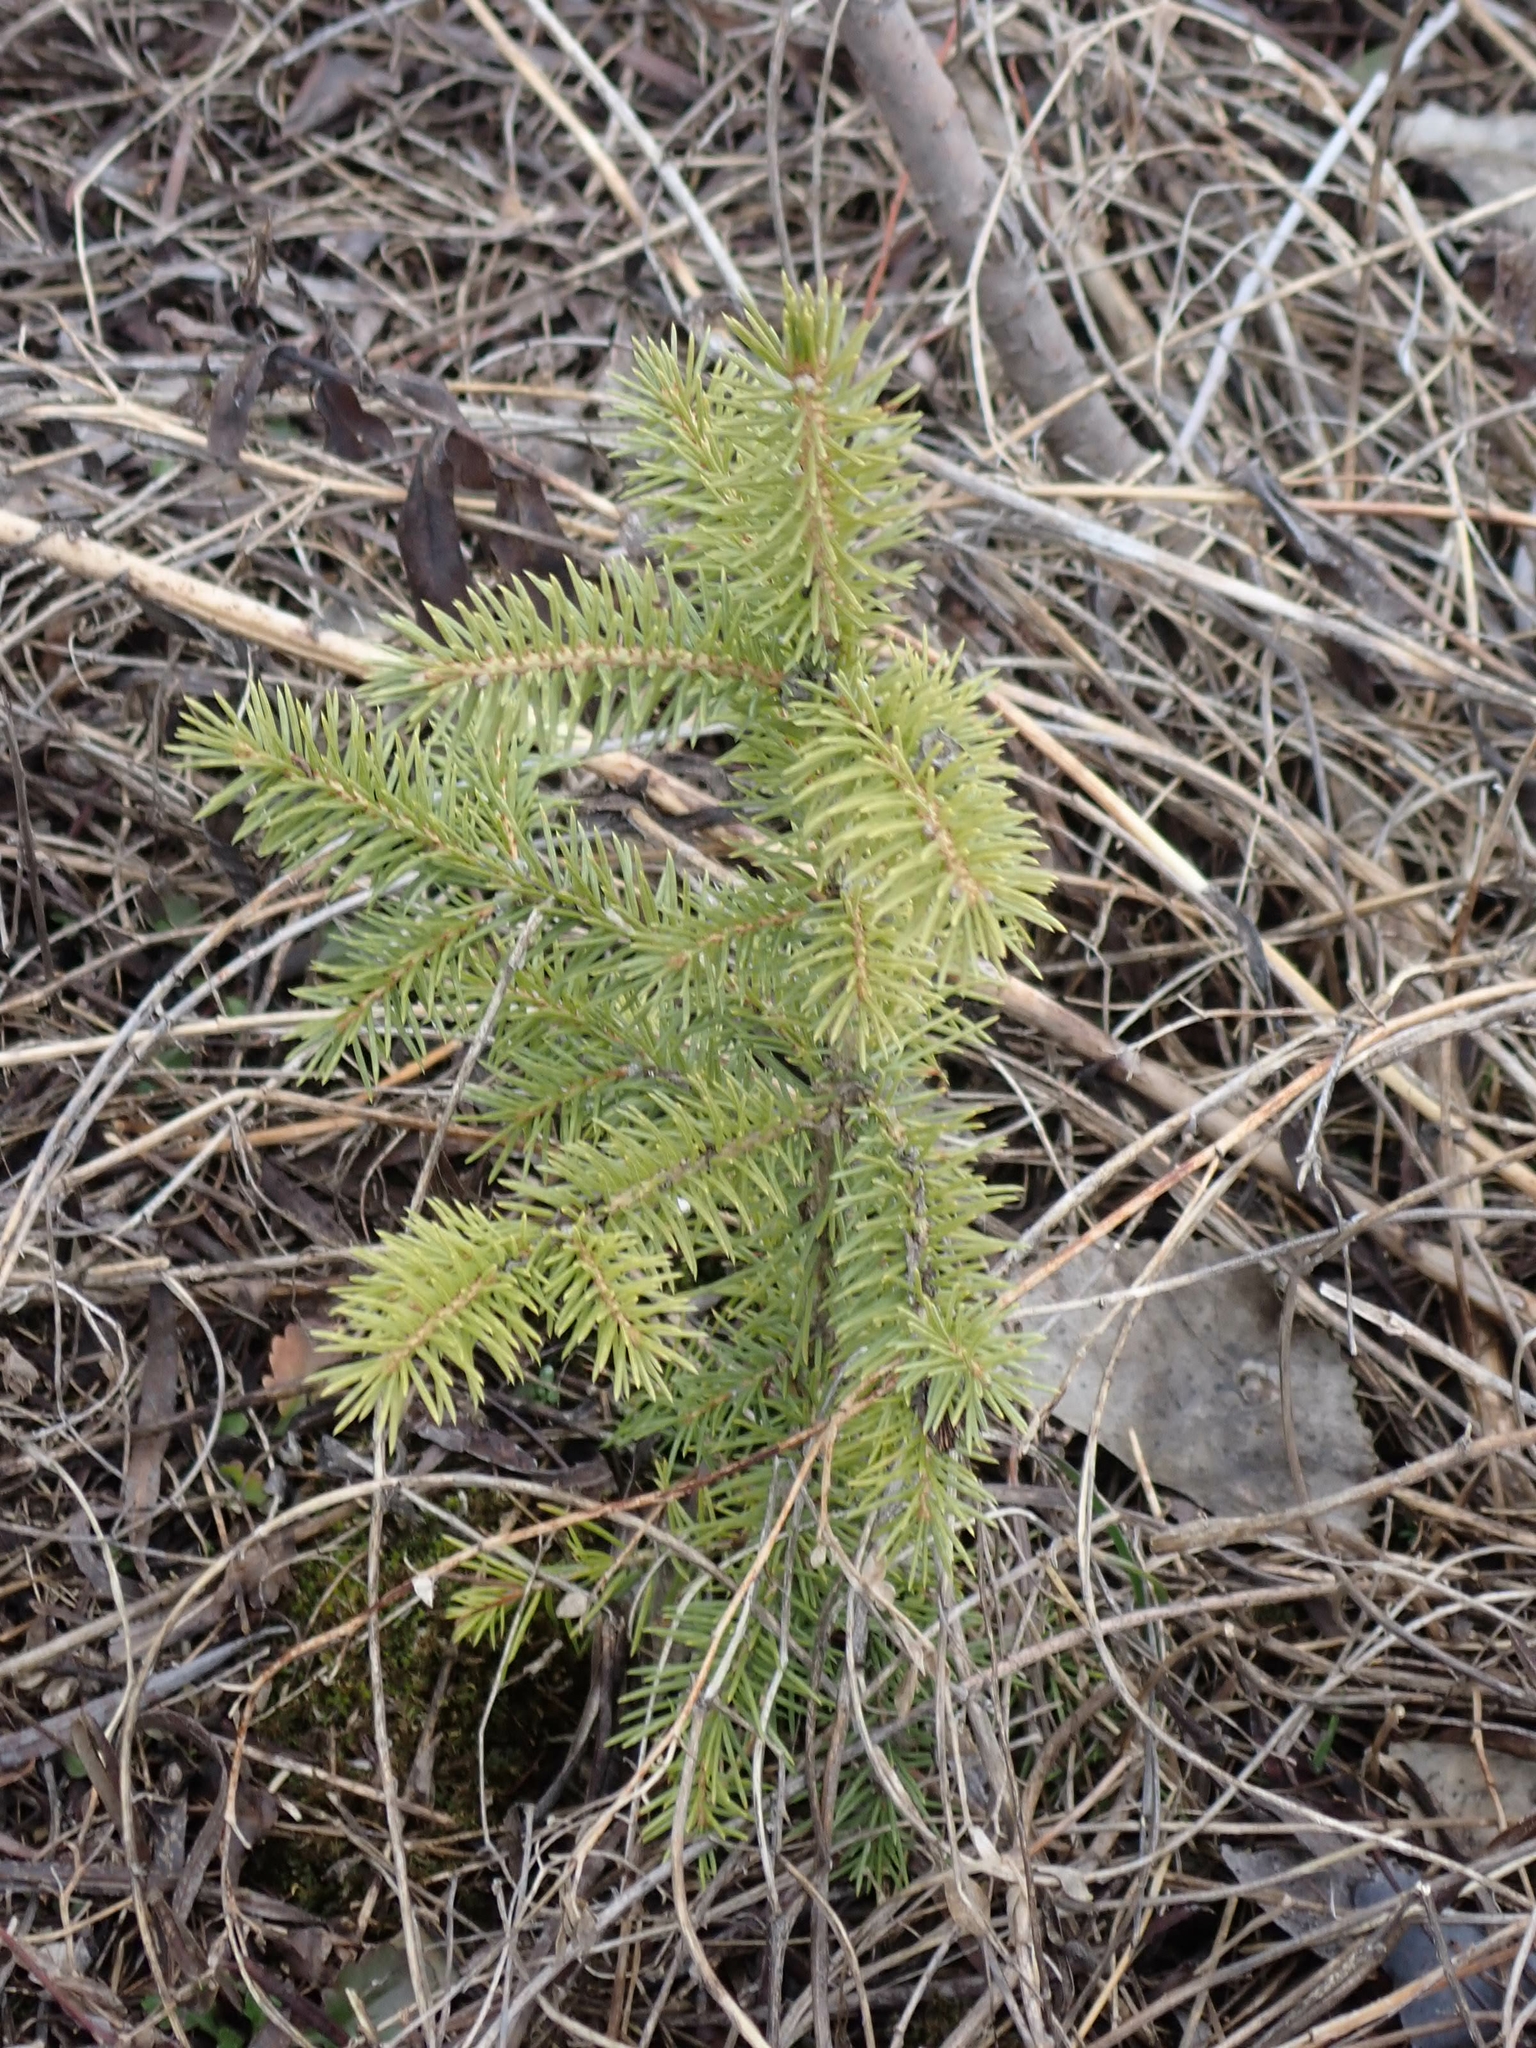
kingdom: Plantae
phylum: Tracheophyta
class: Pinopsida
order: Pinales
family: Pinaceae
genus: Picea
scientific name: Picea glauca
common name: White spruce
